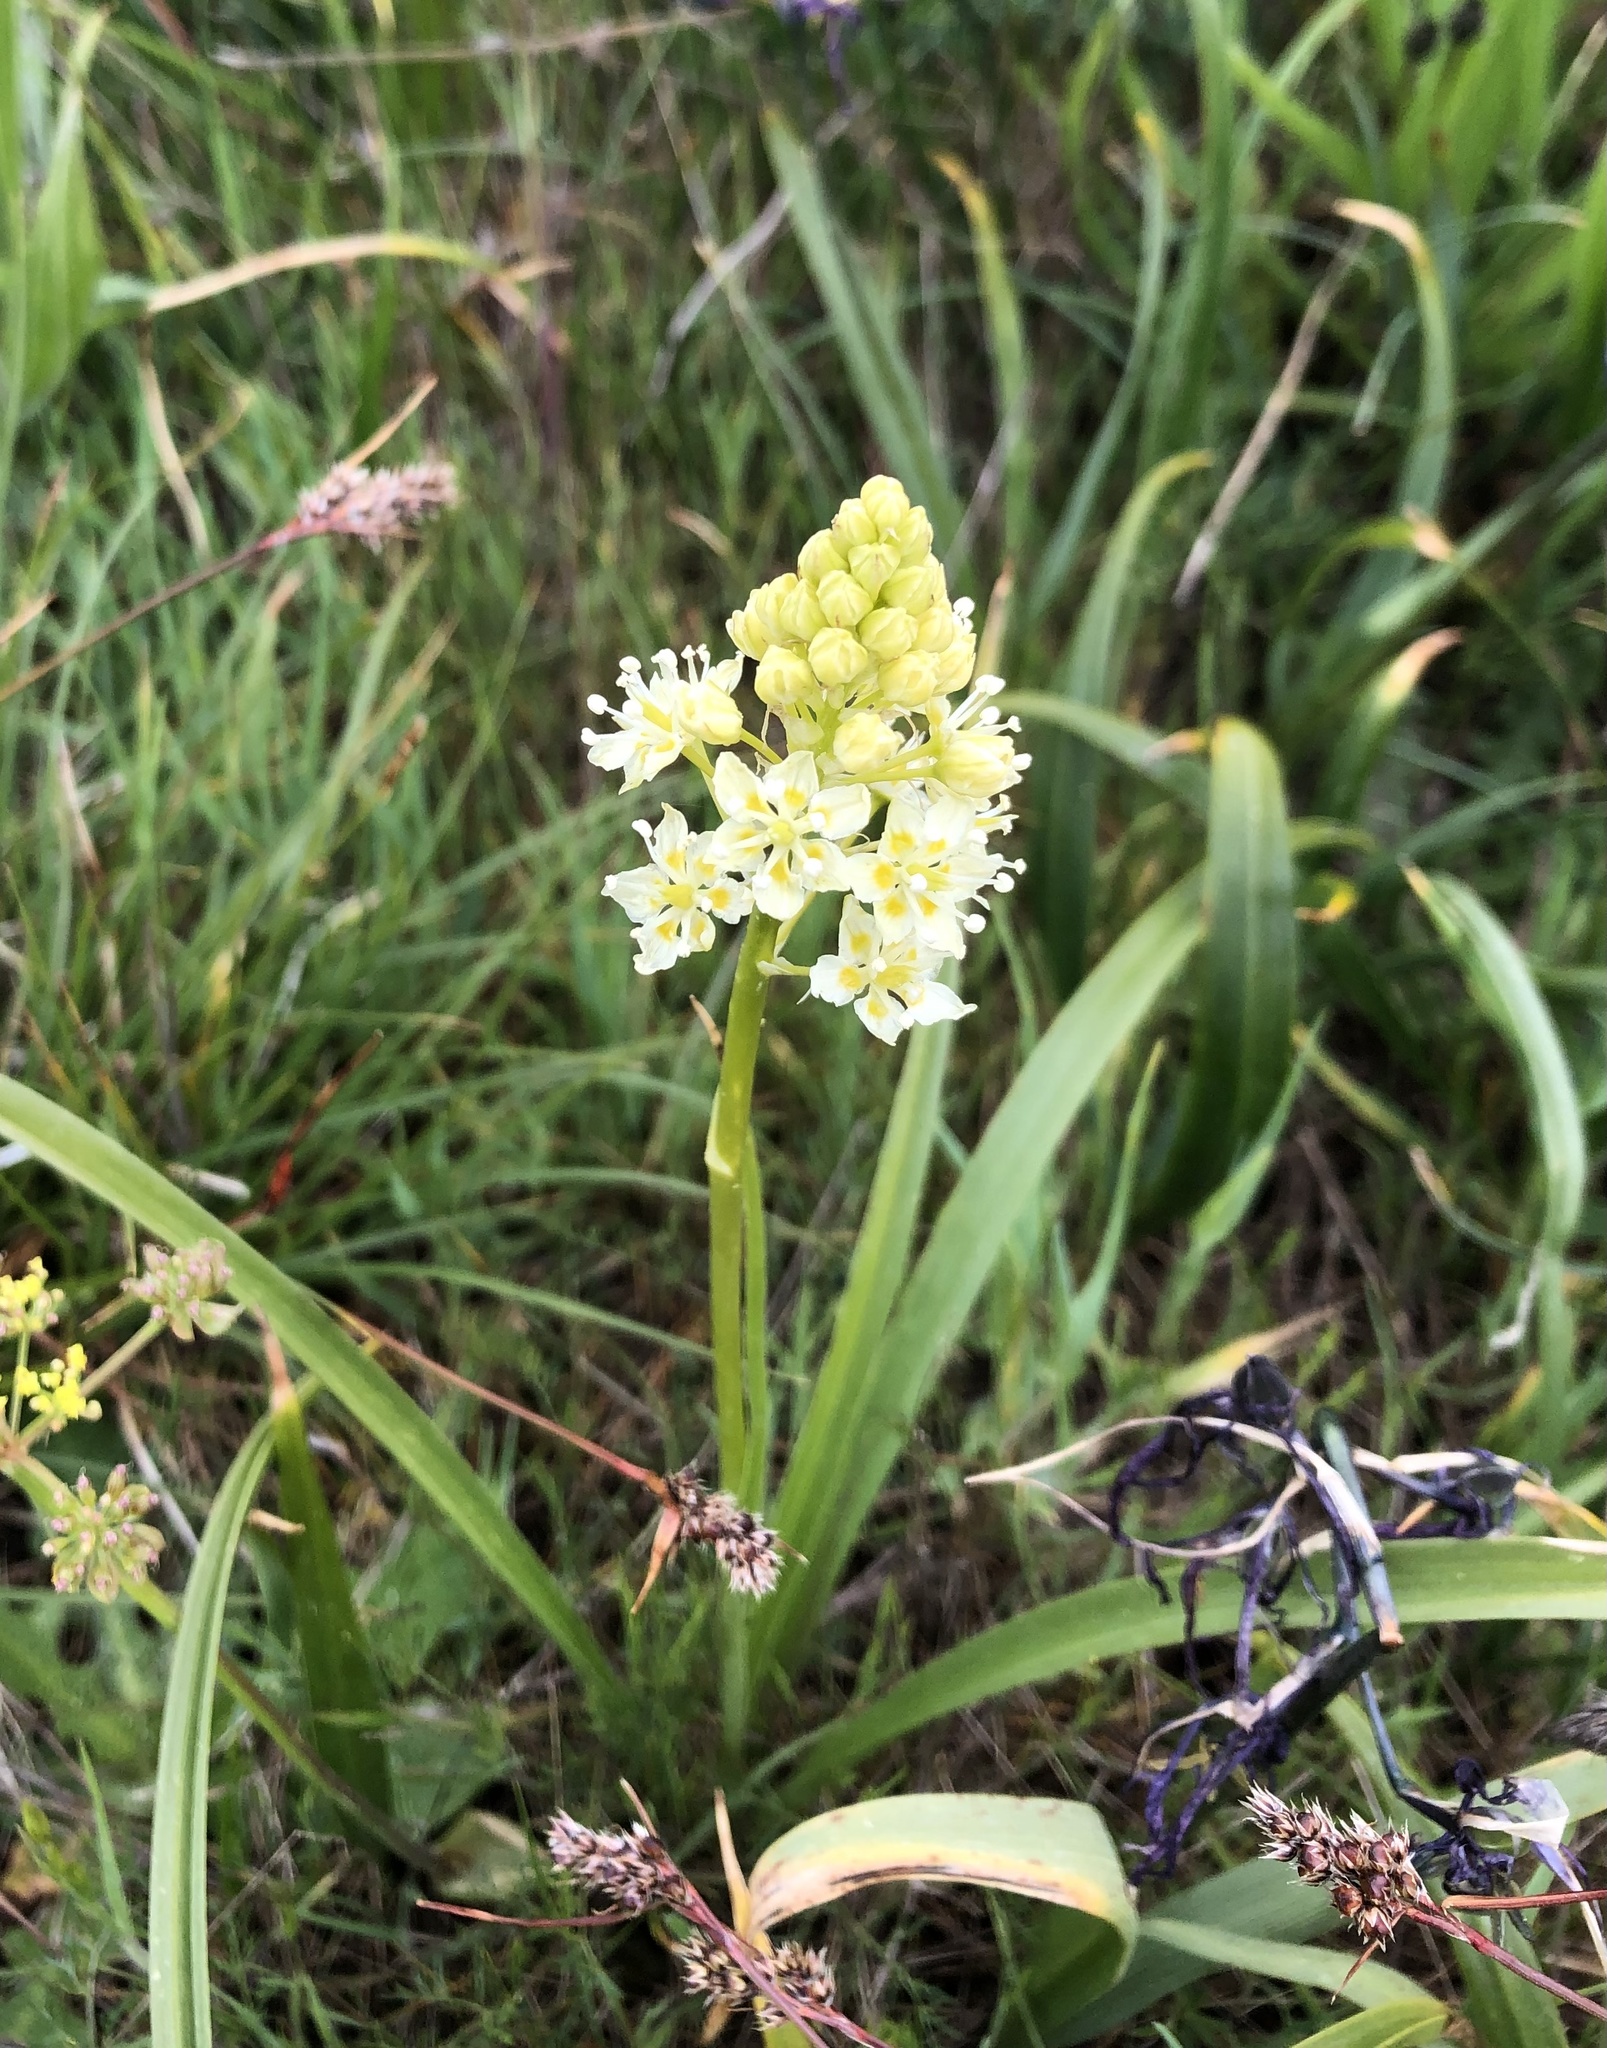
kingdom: Plantae
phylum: Tracheophyta
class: Liliopsida
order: Liliales
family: Melanthiaceae
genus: Toxicoscordion
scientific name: Toxicoscordion venenosum
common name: Meadow death camas
